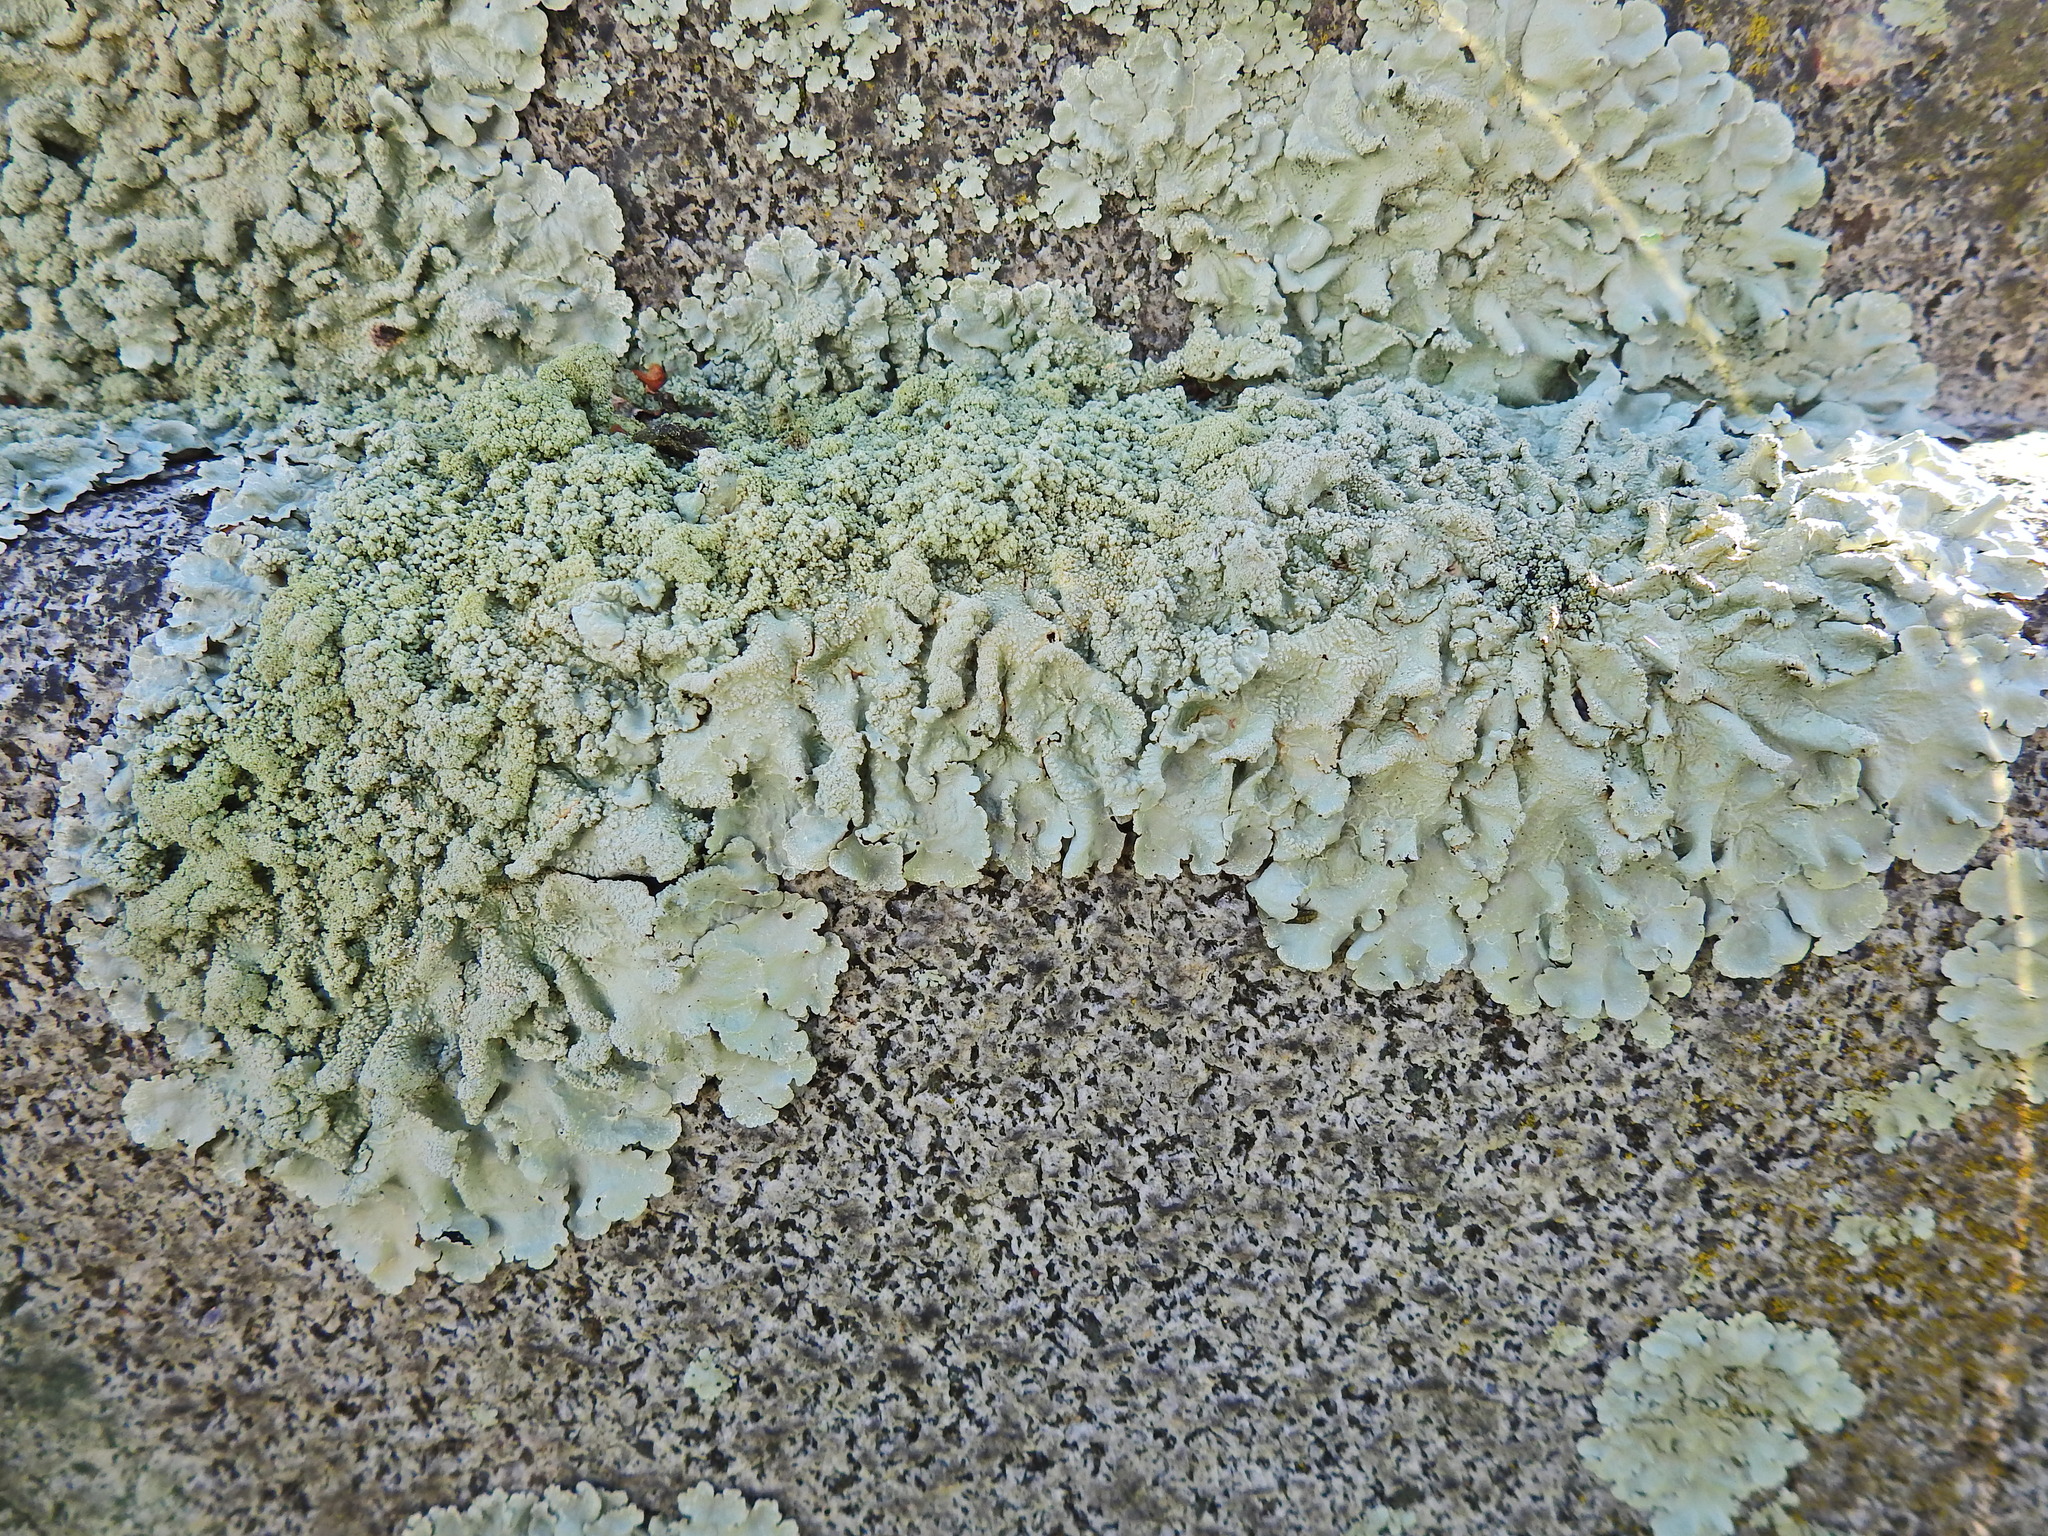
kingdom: Fungi
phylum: Ascomycota
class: Lecanoromycetes
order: Lecanorales
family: Parmeliaceae
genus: Flavoparmelia
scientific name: Flavoparmelia caperata
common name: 40-mile per hour lichen
